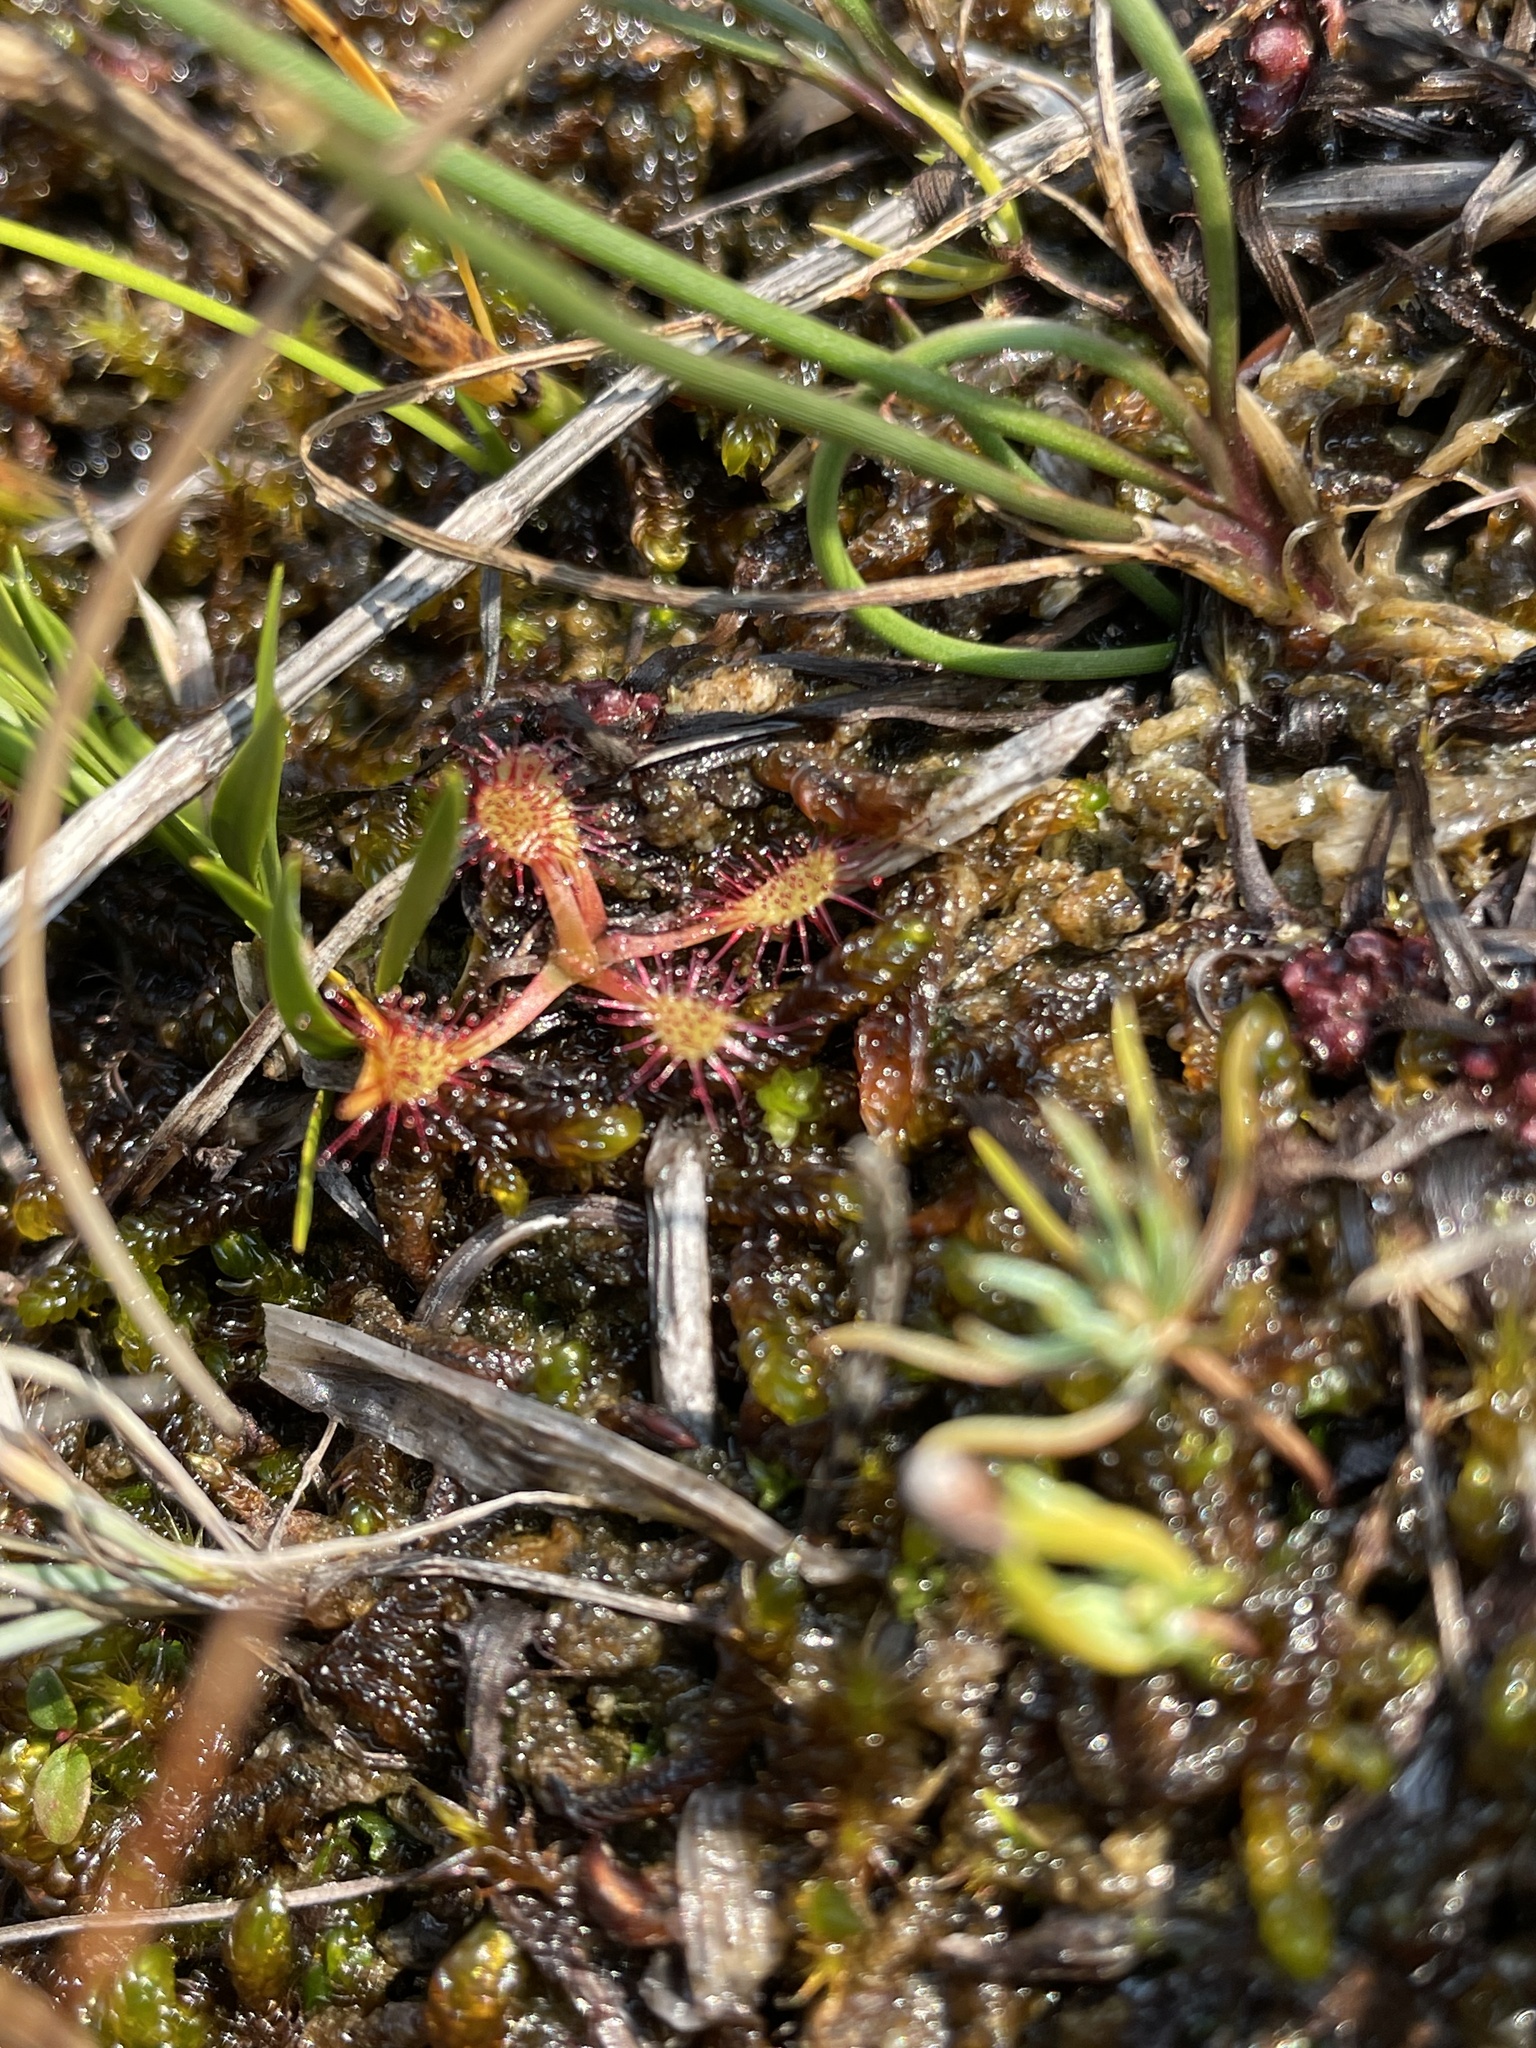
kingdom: Plantae
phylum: Tracheophyta
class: Magnoliopsida
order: Caryophyllales
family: Droseraceae
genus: Drosera
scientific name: Drosera anglica
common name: Great sundew
